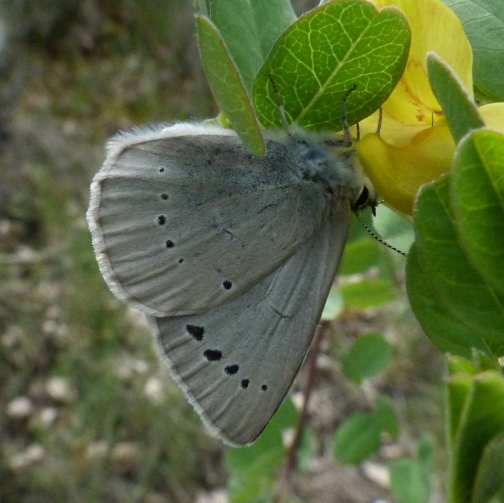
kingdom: Animalia
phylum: Arthropoda
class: Insecta
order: Lepidoptera
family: Lycaenidae
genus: Iolana
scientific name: Iolana debilitata
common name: Iolas blue
